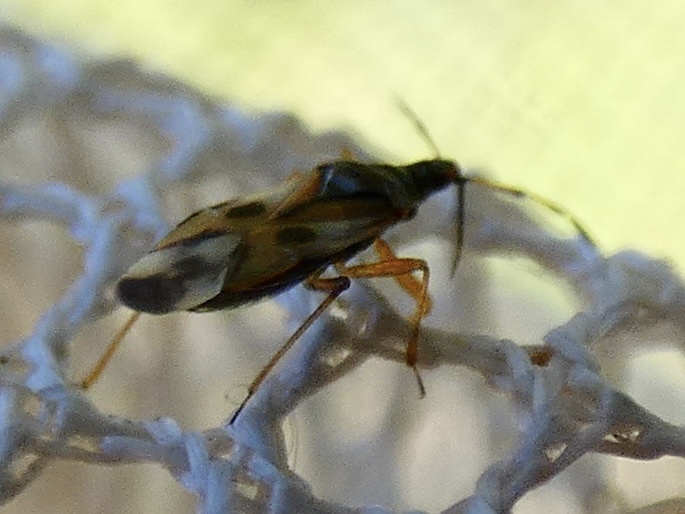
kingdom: Animalia
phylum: Arthropoda
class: Insecta
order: Hemiptera
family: Anthocoridae
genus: Anthocoris
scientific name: Anthocoris nemorum
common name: Minute pirate bug
